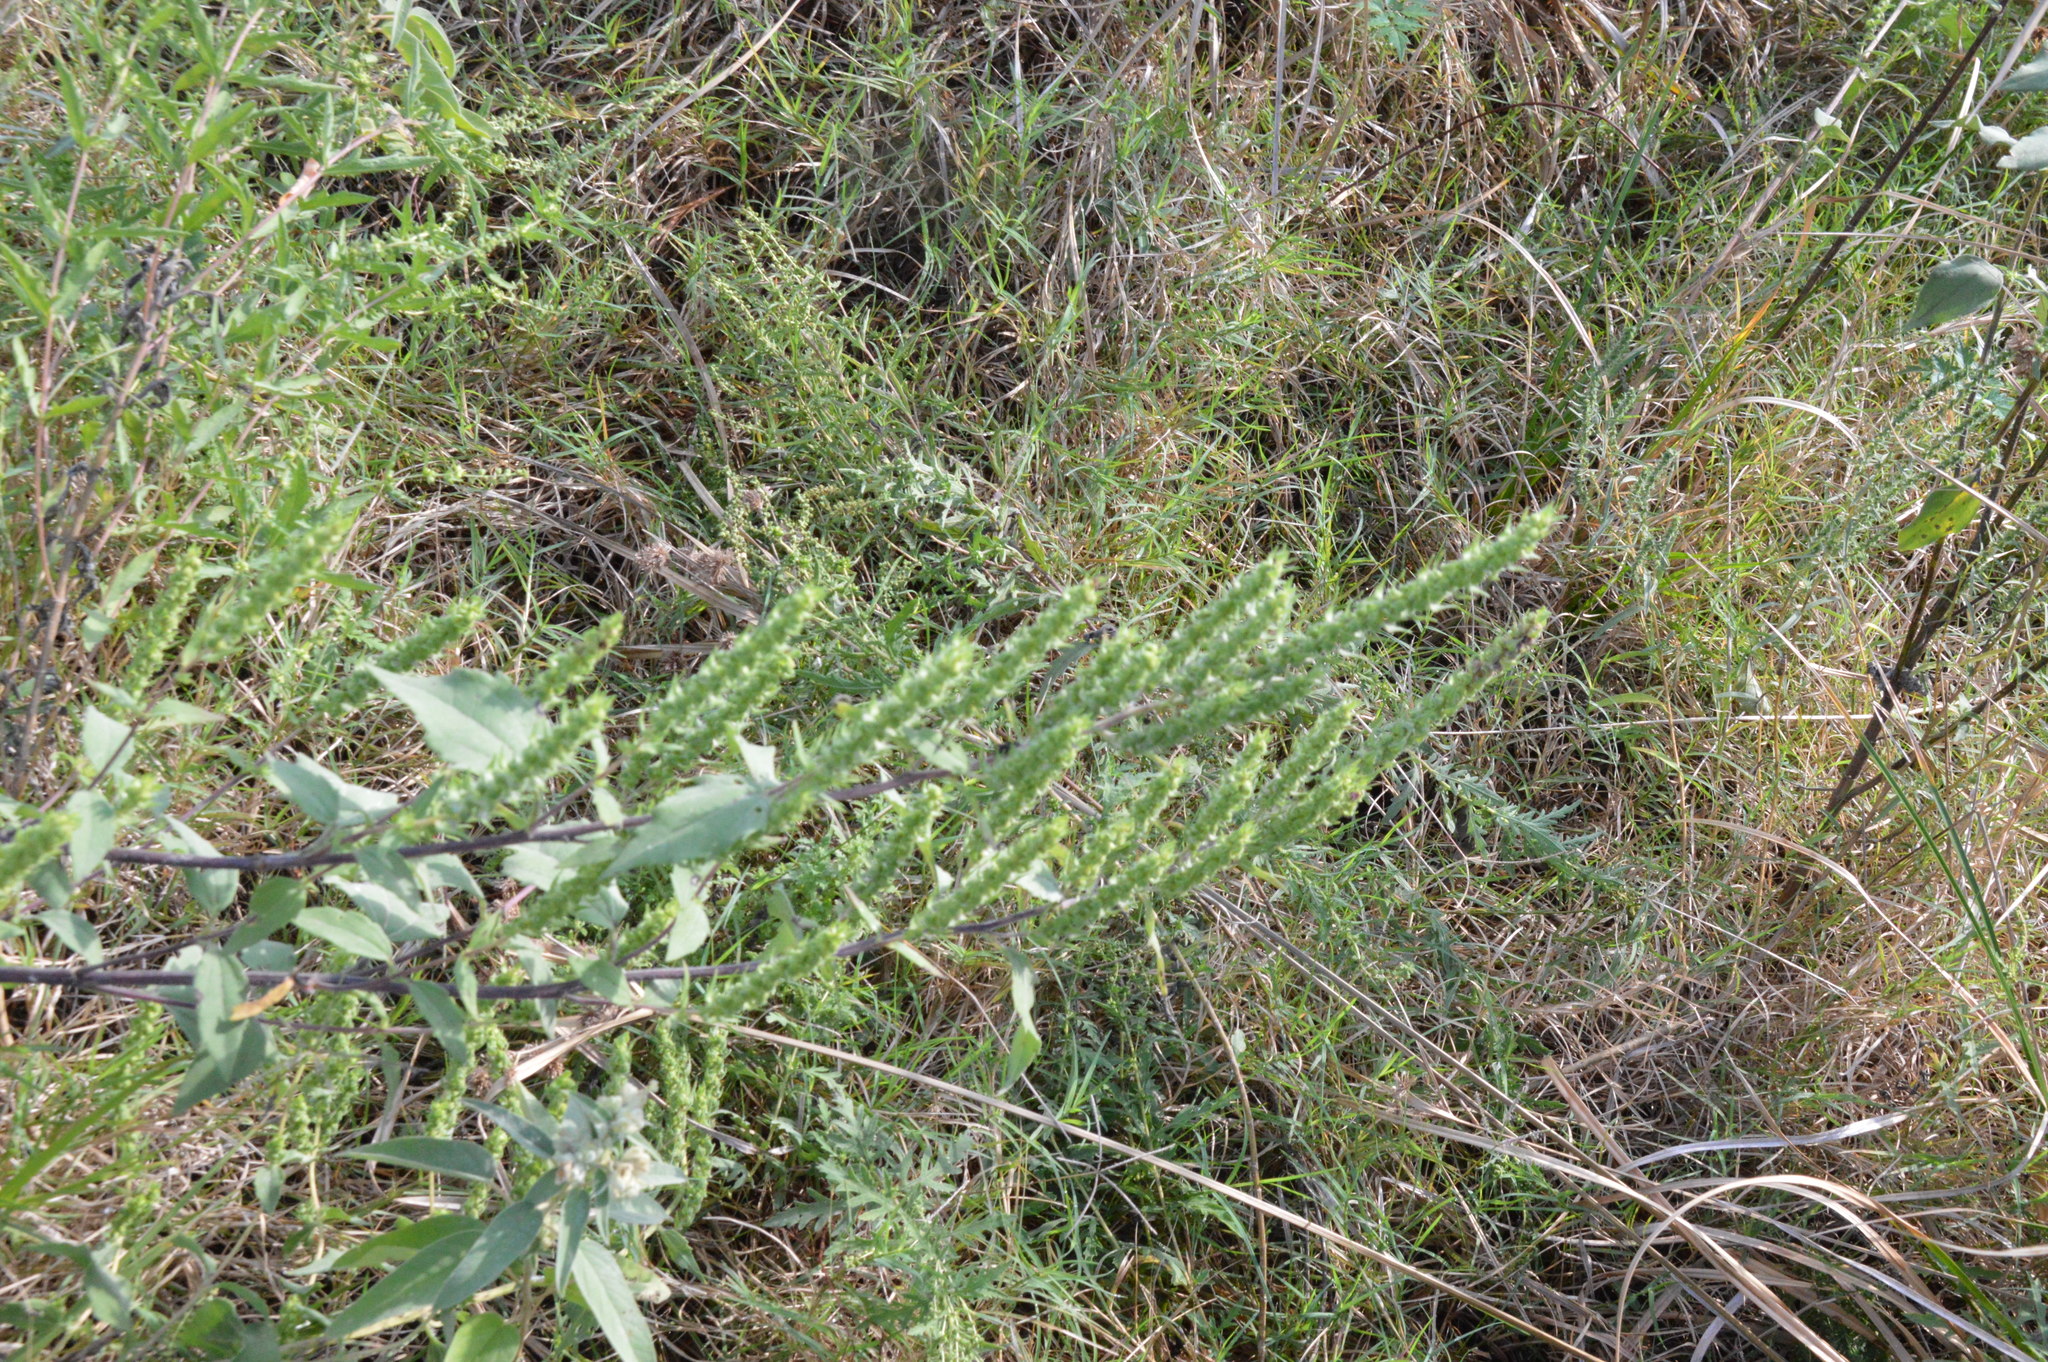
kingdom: Plantae
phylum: Tracheophyta
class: Magnoliopsida
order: Asterales
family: Asteraceae
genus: Iva
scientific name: Iva annua
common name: Marsh-elder
